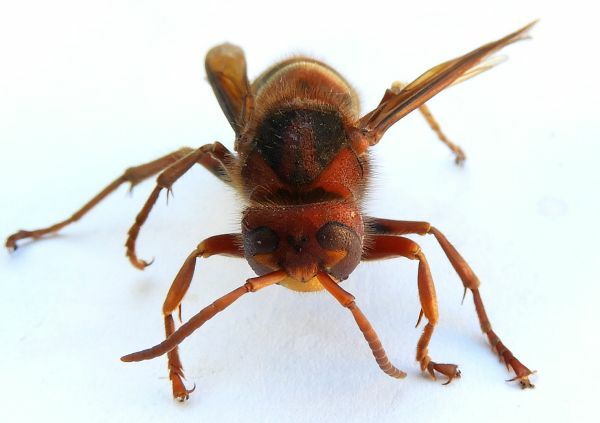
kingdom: Animalia
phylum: Arthropoda
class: Insecta
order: Hymenoptera
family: Vespidae
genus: Vespa
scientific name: Vespa crabro
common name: Hornet
